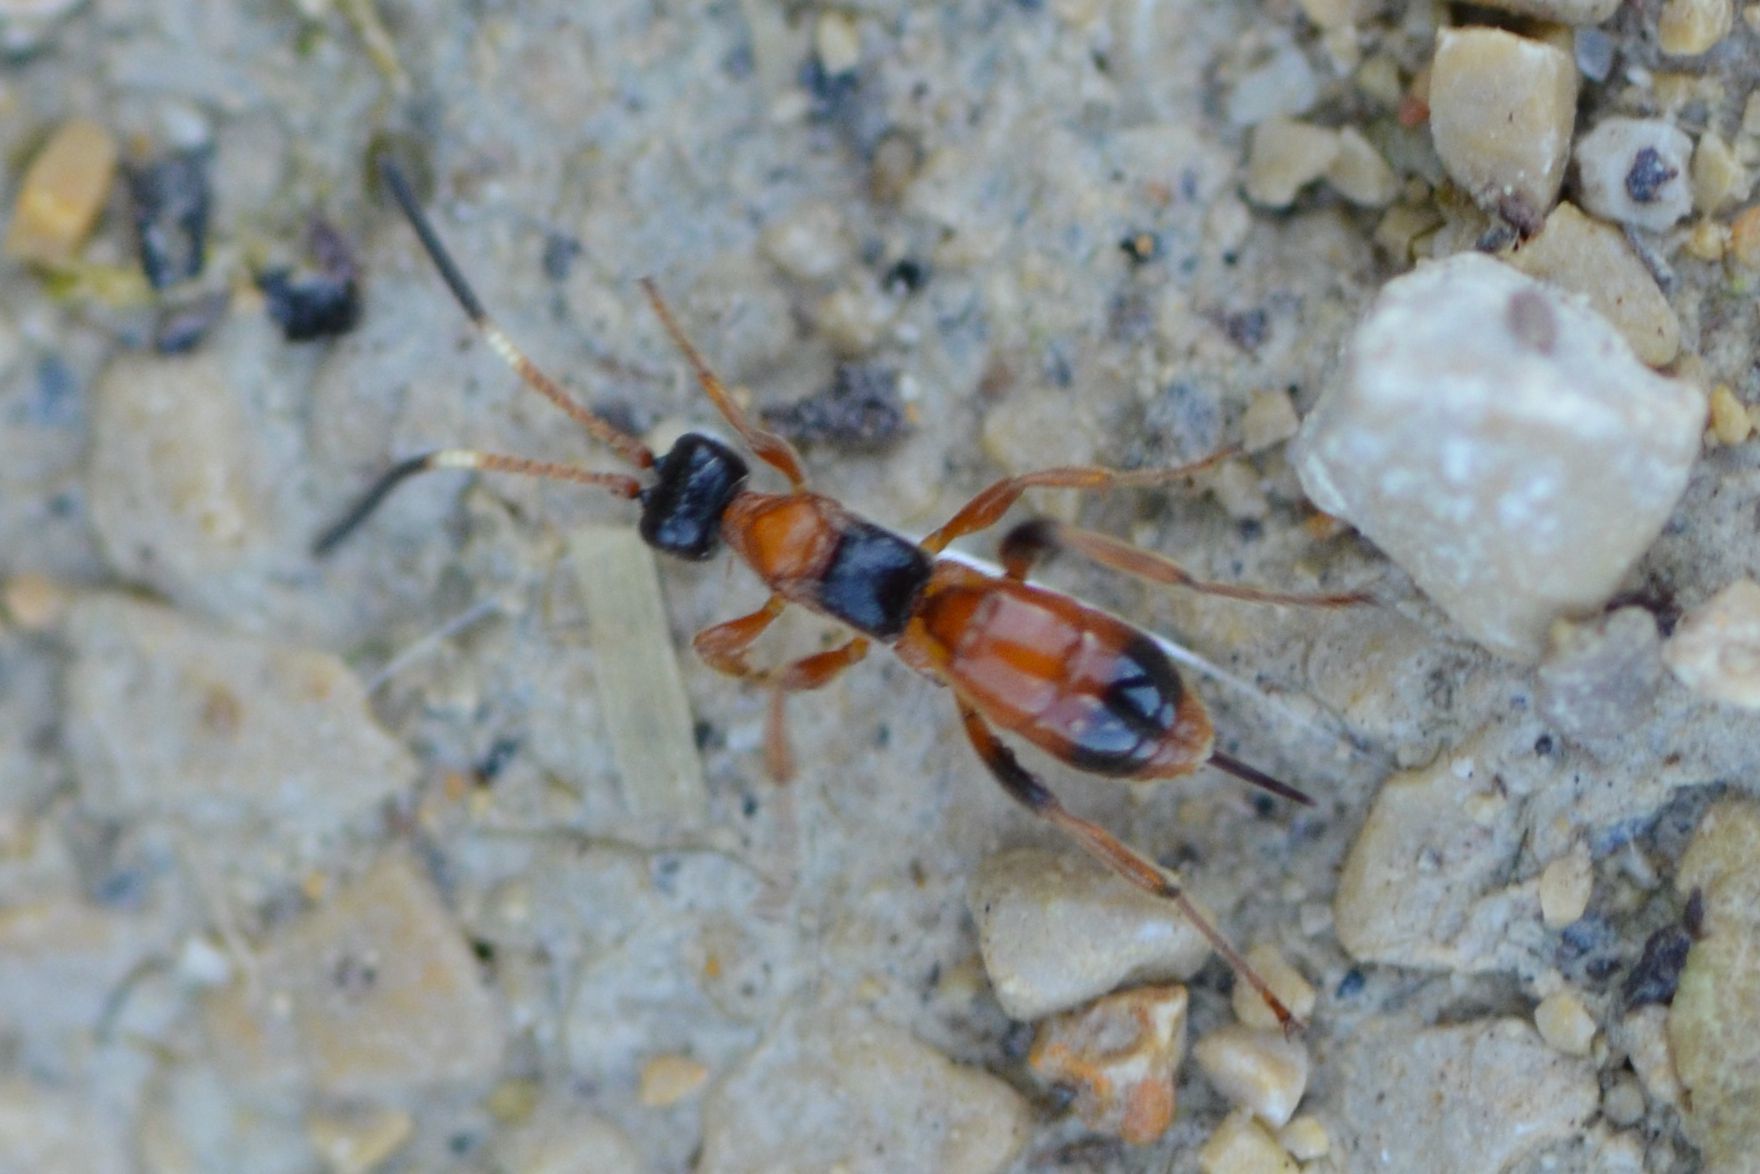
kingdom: Animalia
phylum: Arthropoda
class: Insecta
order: Hymenoptera
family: Ichneumonidae
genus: Aptesis
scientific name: Aptesis nigrocincta
